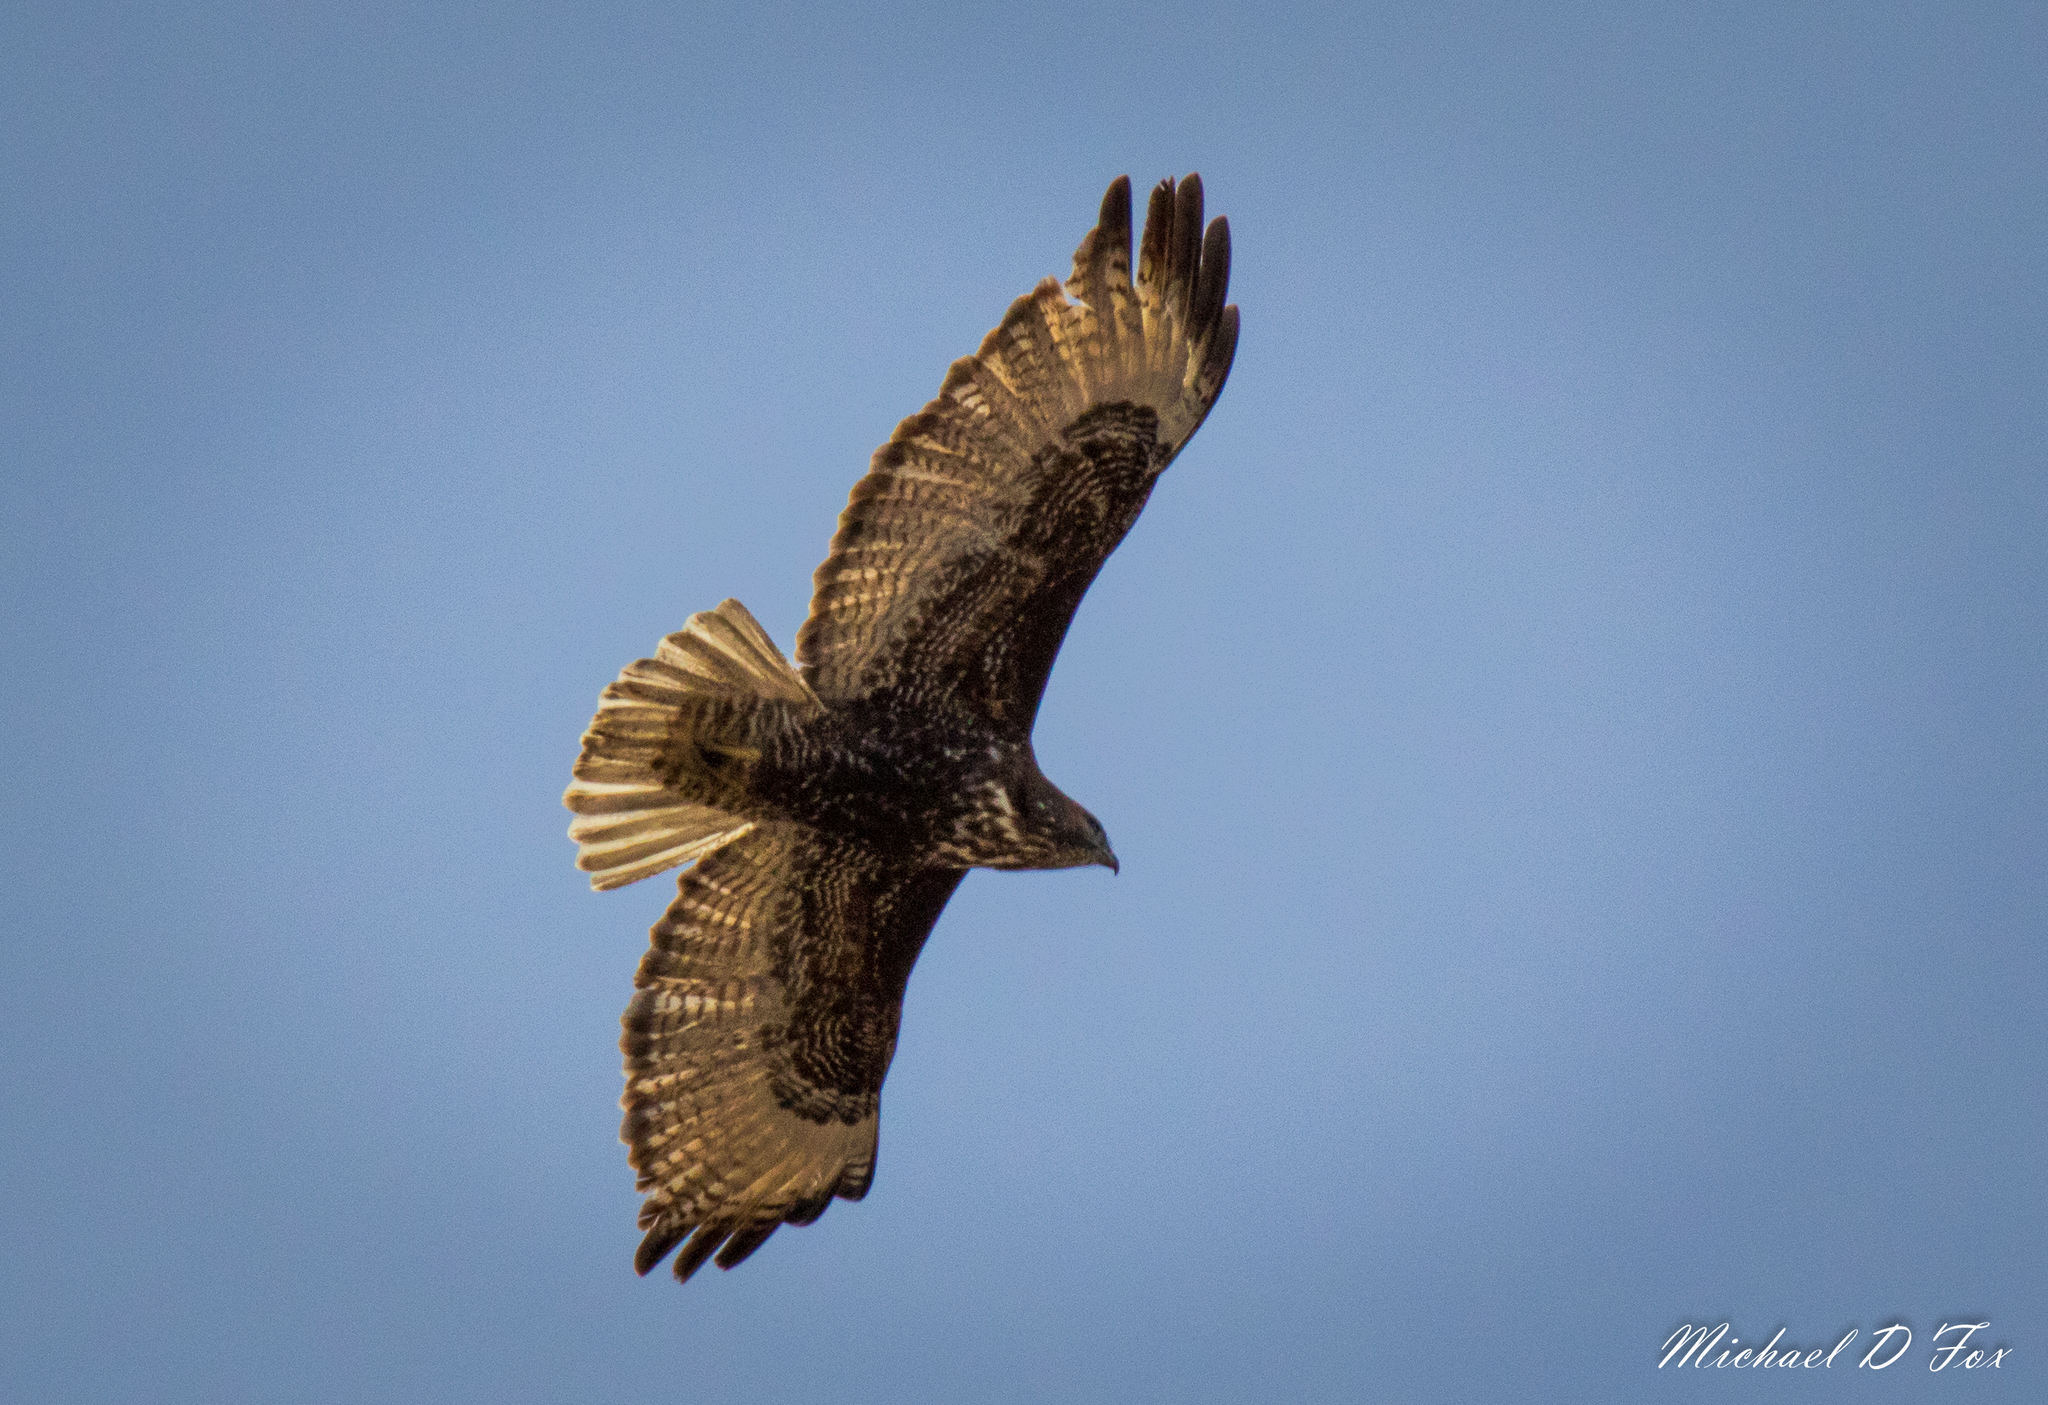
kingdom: Animalia
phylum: Chordata
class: Aves
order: Accipitriformes
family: Accipitridae
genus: Buteo
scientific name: Buteo jamaicensis
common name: Red-tailed hawk
